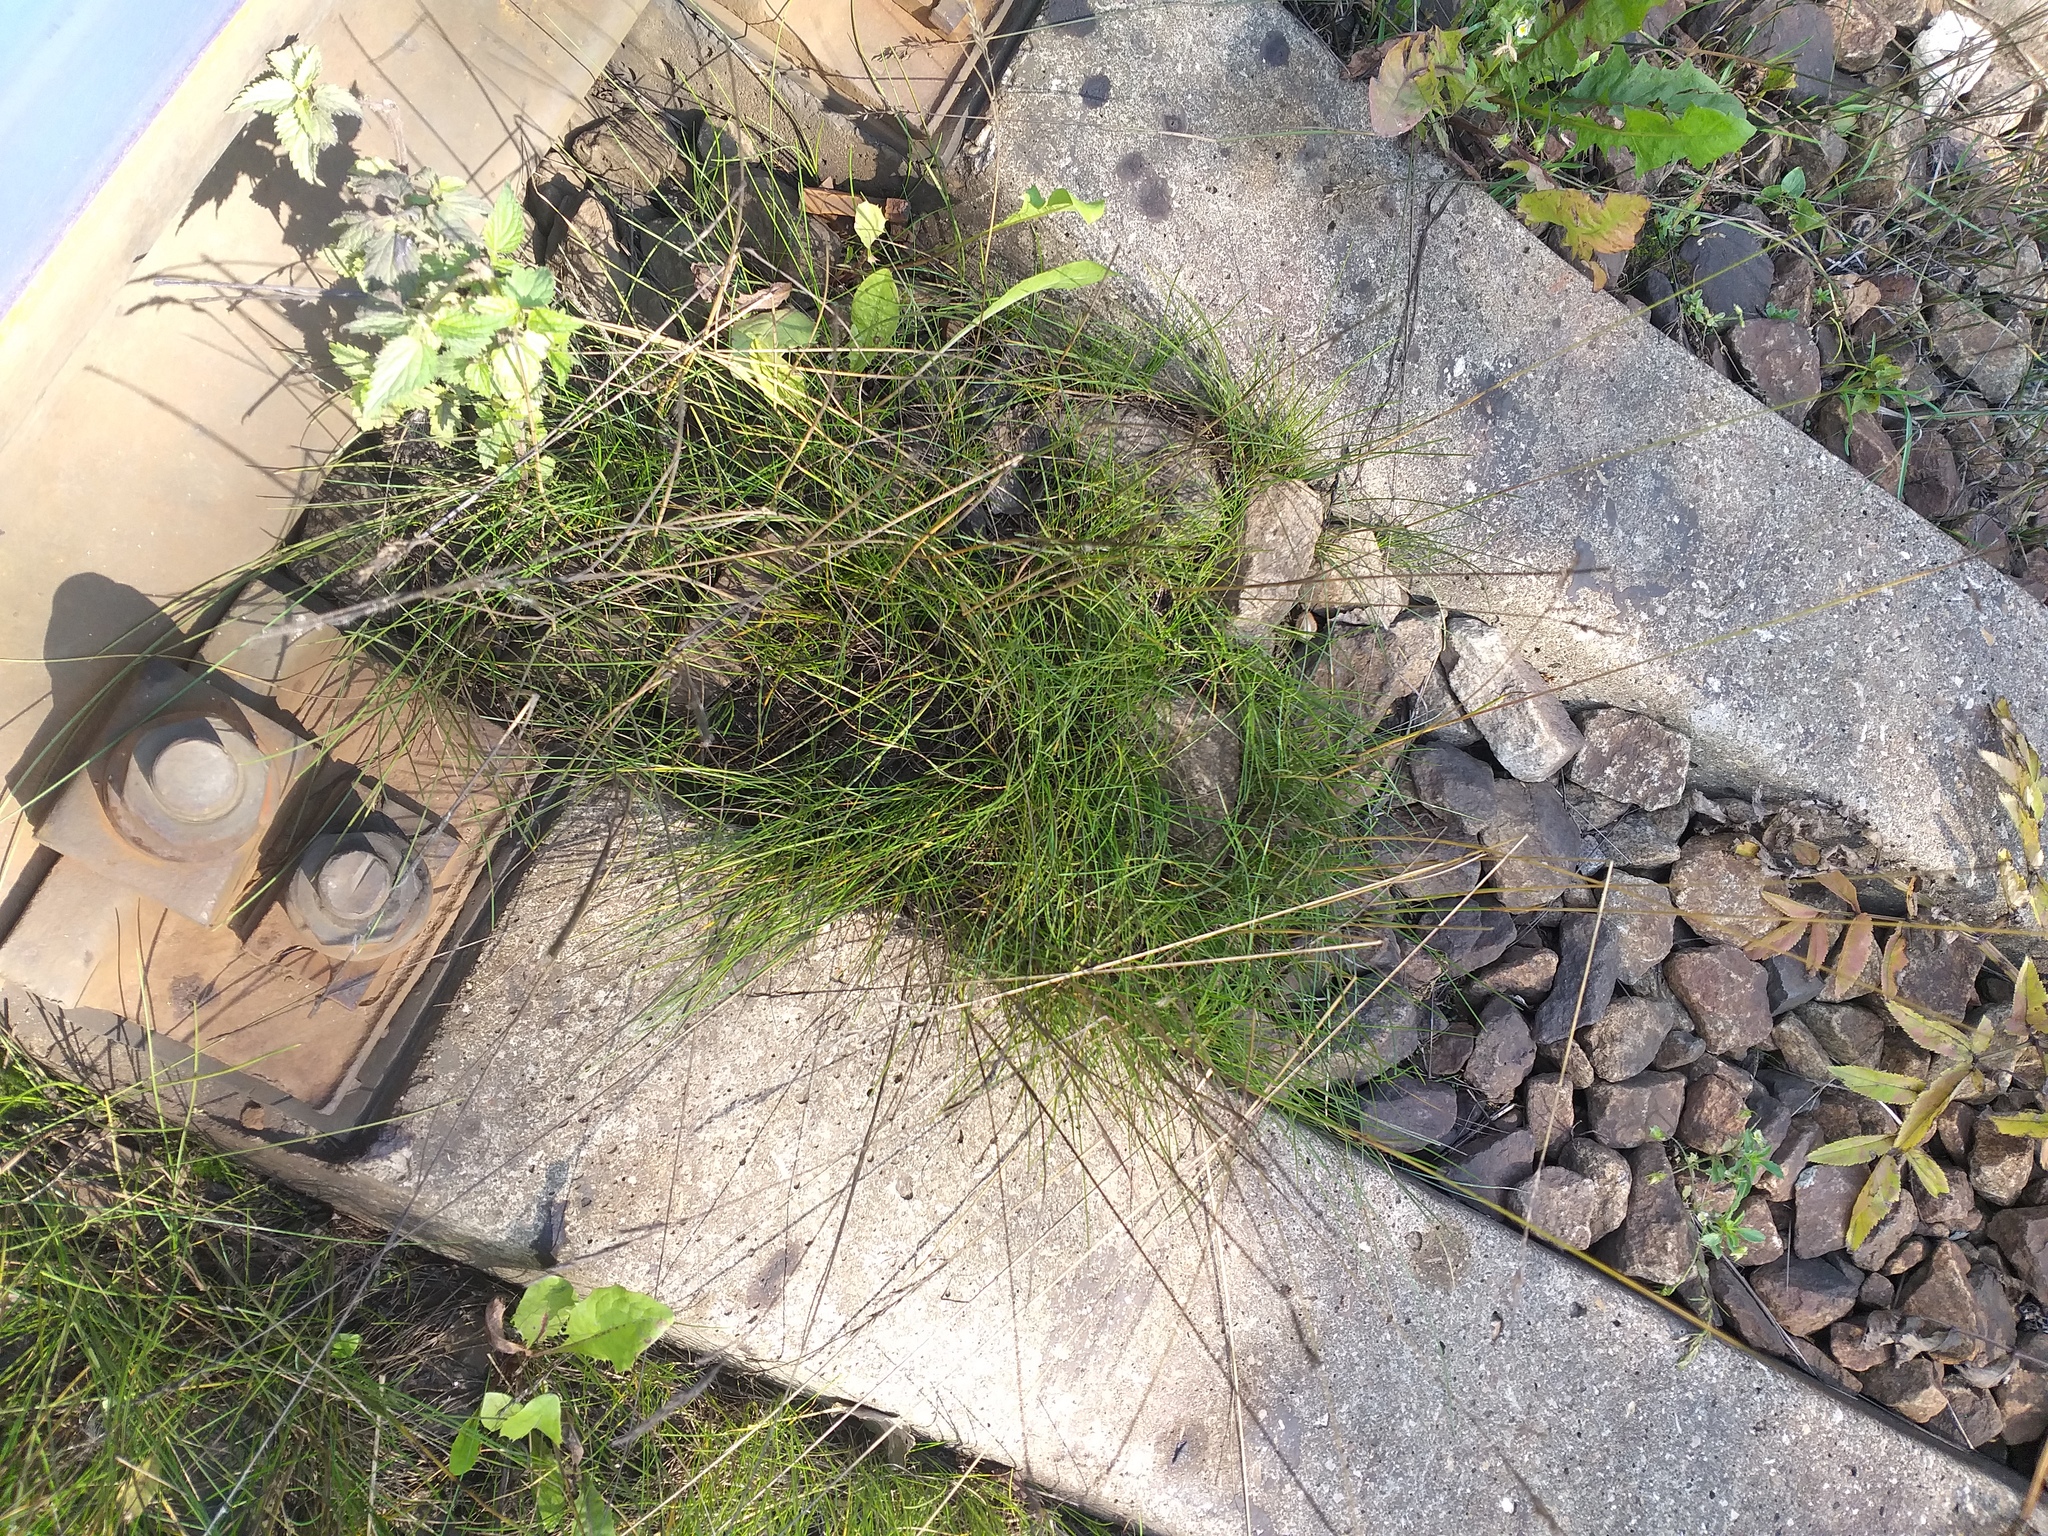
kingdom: Plantae
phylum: Tracheophyta
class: Liliopsida
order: Poales
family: Poaceae
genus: Festuca
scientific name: Festuca rubra
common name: Red fescue
